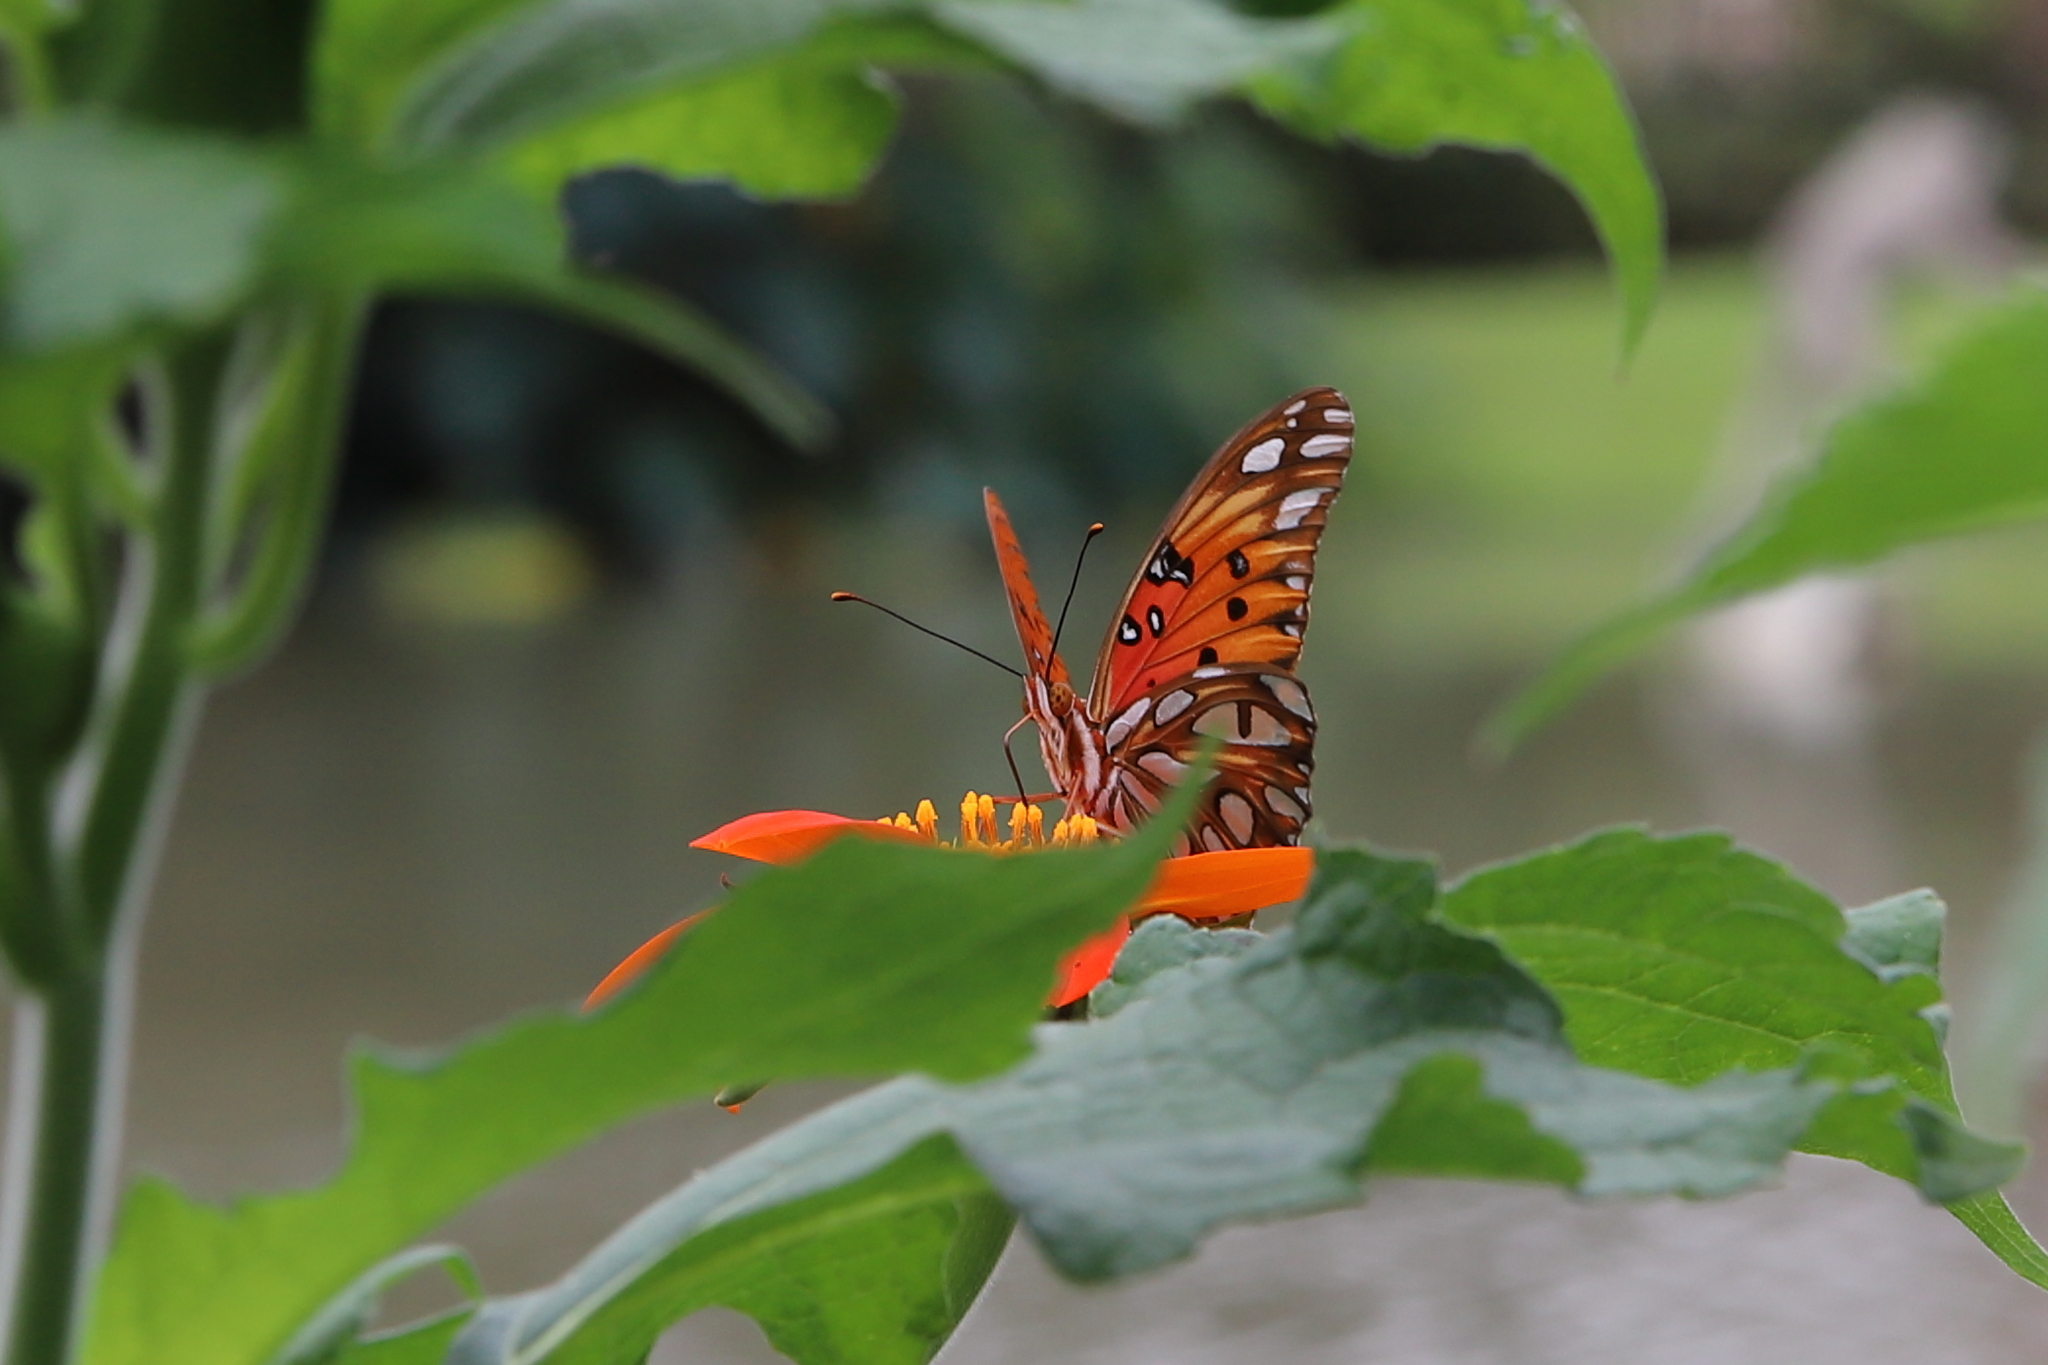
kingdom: Animalia
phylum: Arthropoda
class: Insecta
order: Lepidoptera
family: Nymphalidae
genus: Dione
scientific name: Dione vanillae
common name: Gulf fritillary
